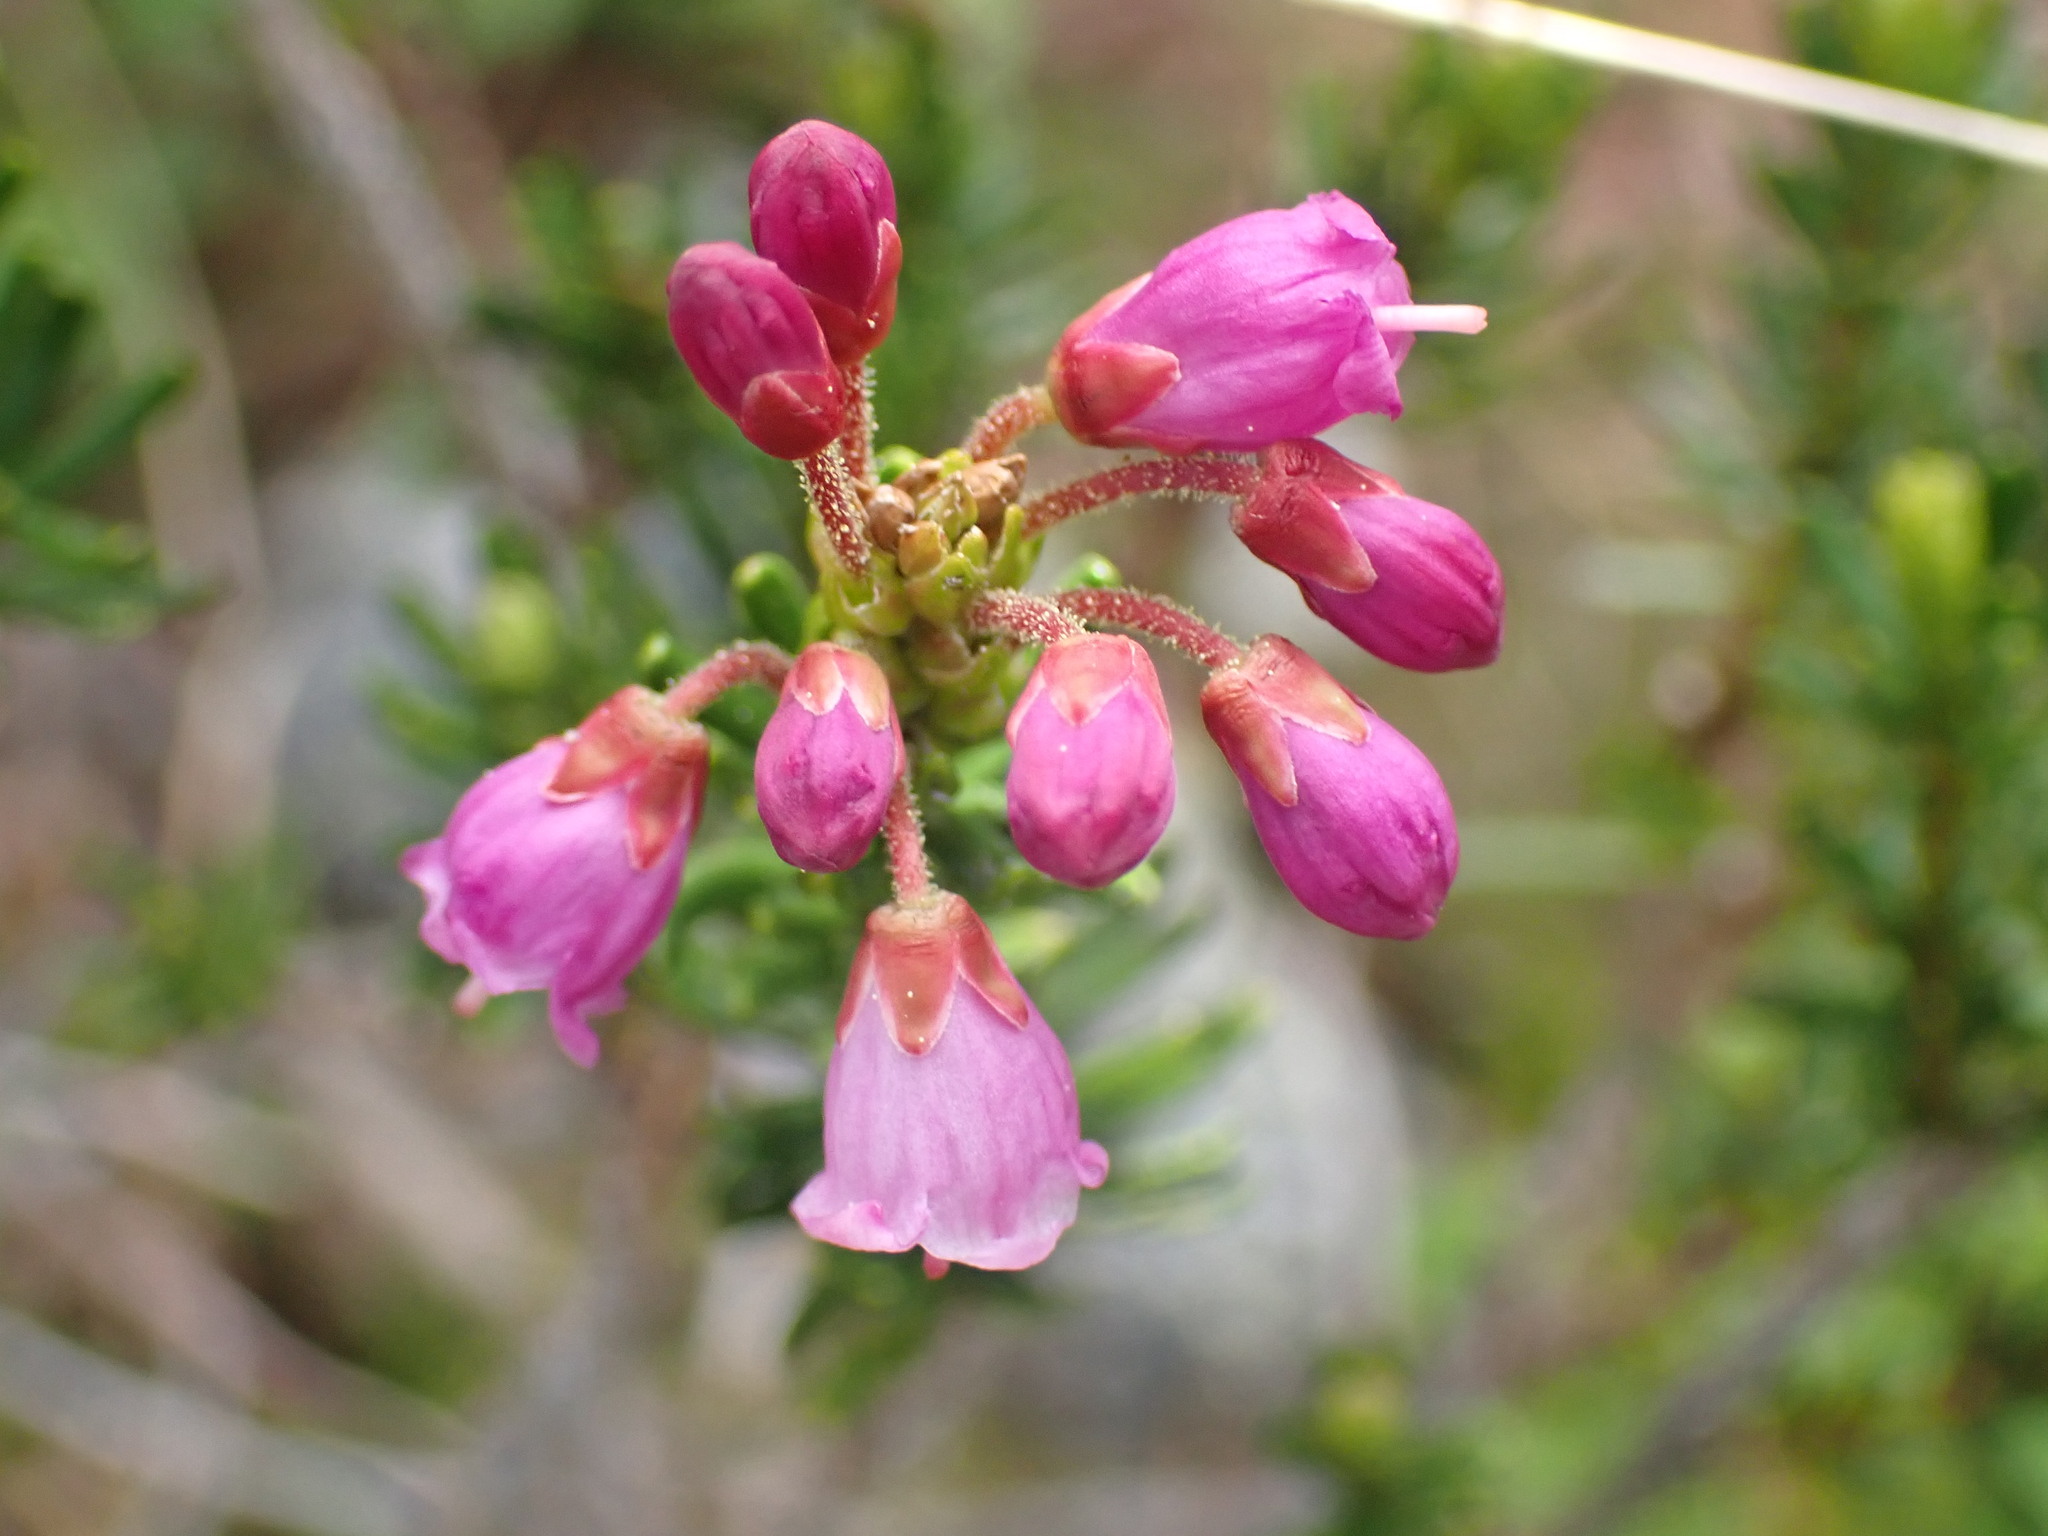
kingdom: Plantae
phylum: Tracheophyta
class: Magnoliopsida
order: Ericales
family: Ericaceae
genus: Phyllodoce
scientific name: Phyllodoce empetriformis
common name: Pink mountain heather
